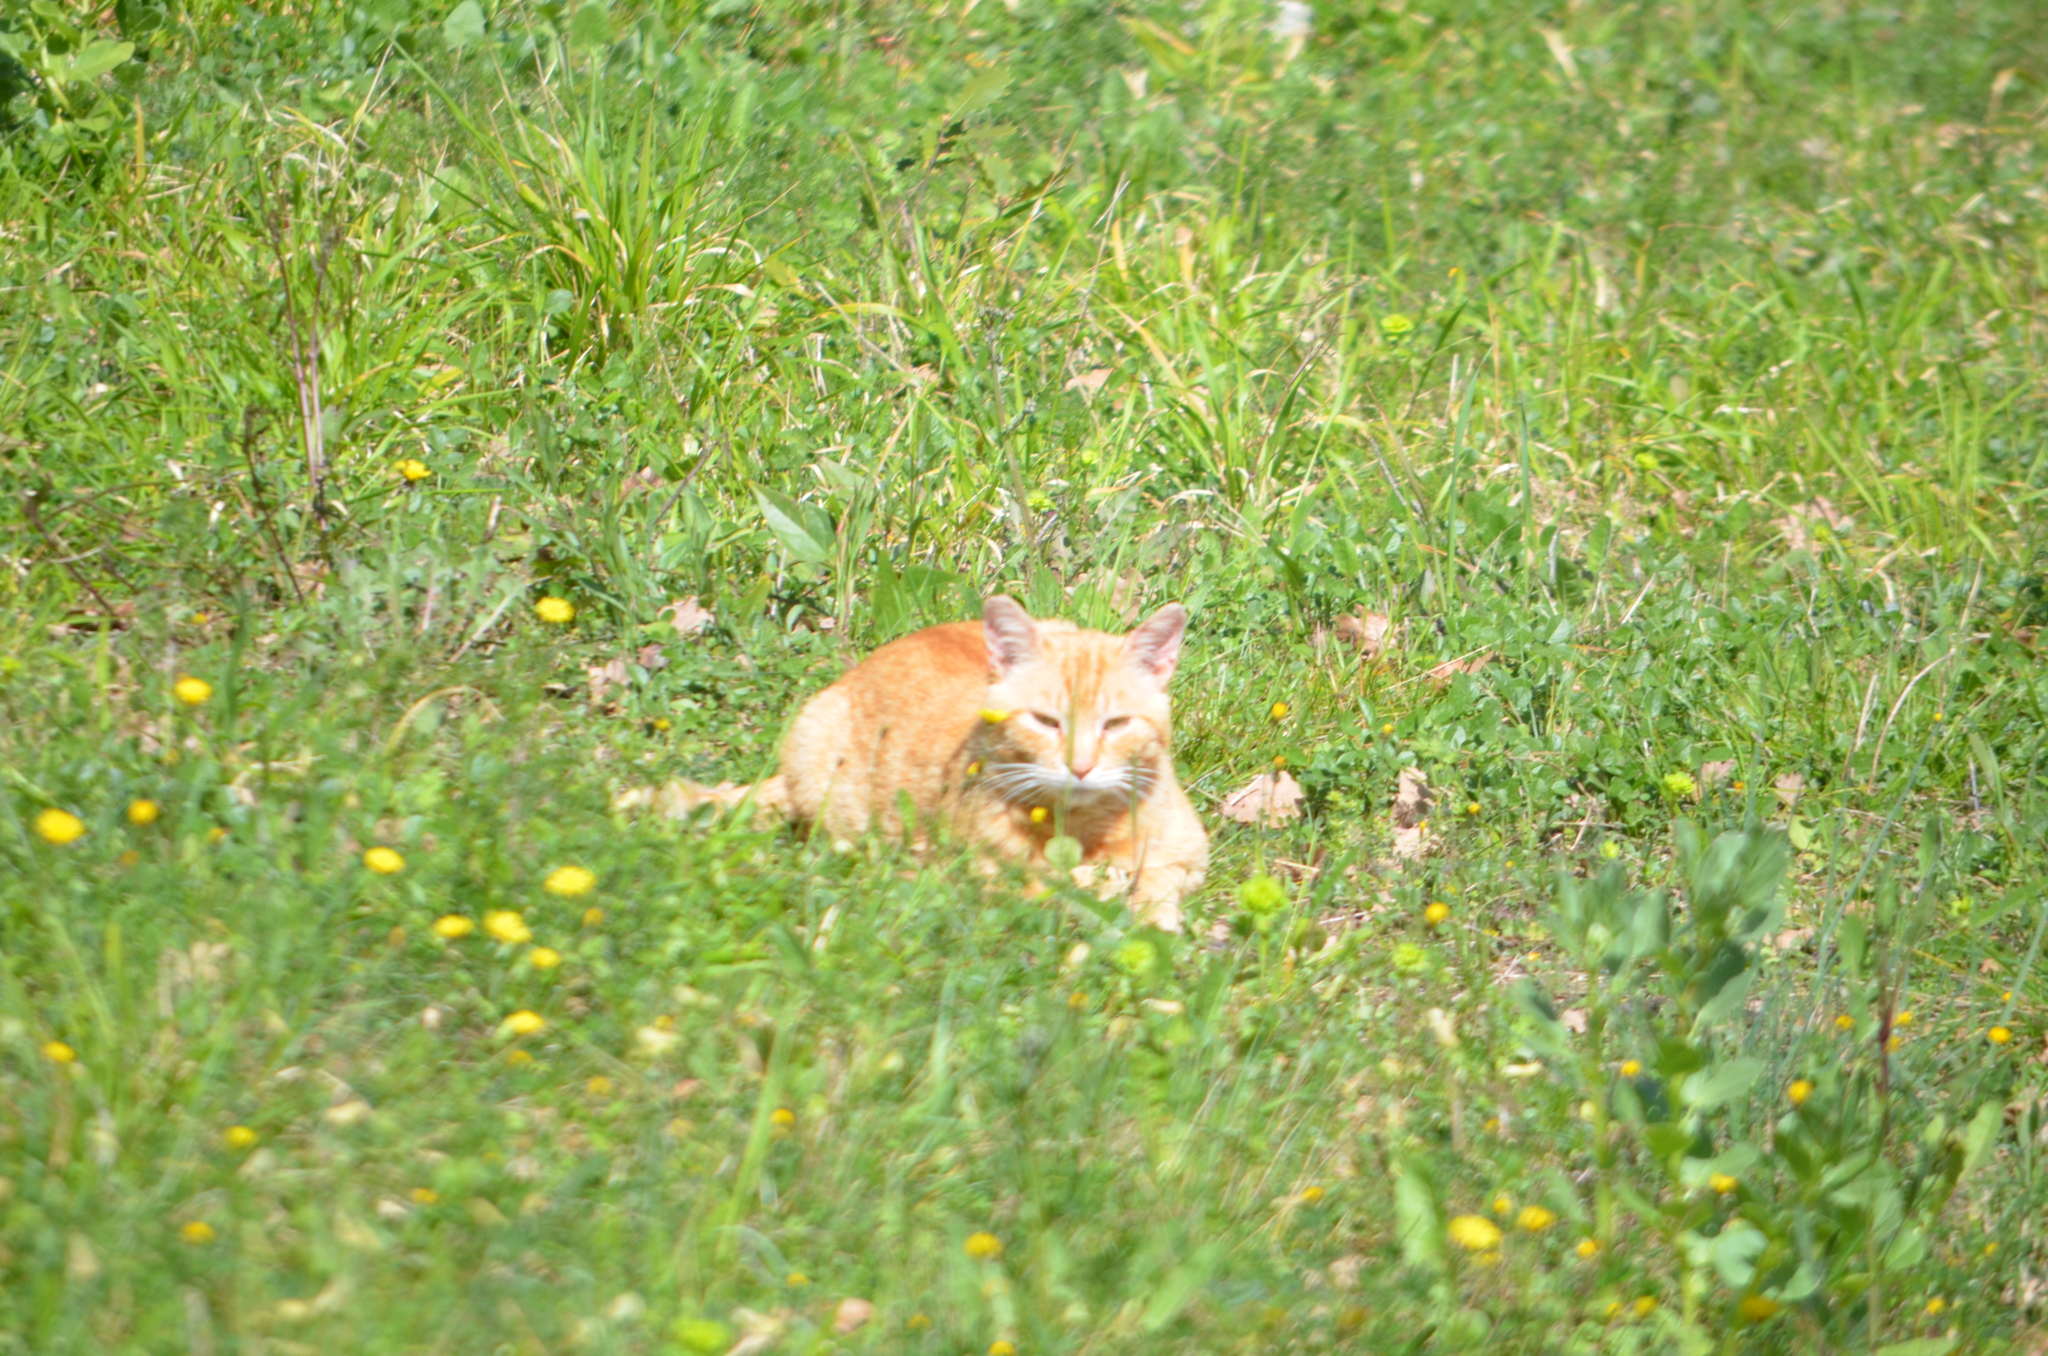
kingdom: Animalia
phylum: Chordata
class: Mammalia
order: Carnivora
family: Felidae
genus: Felis
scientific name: Felis catus
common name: Domestic cat
